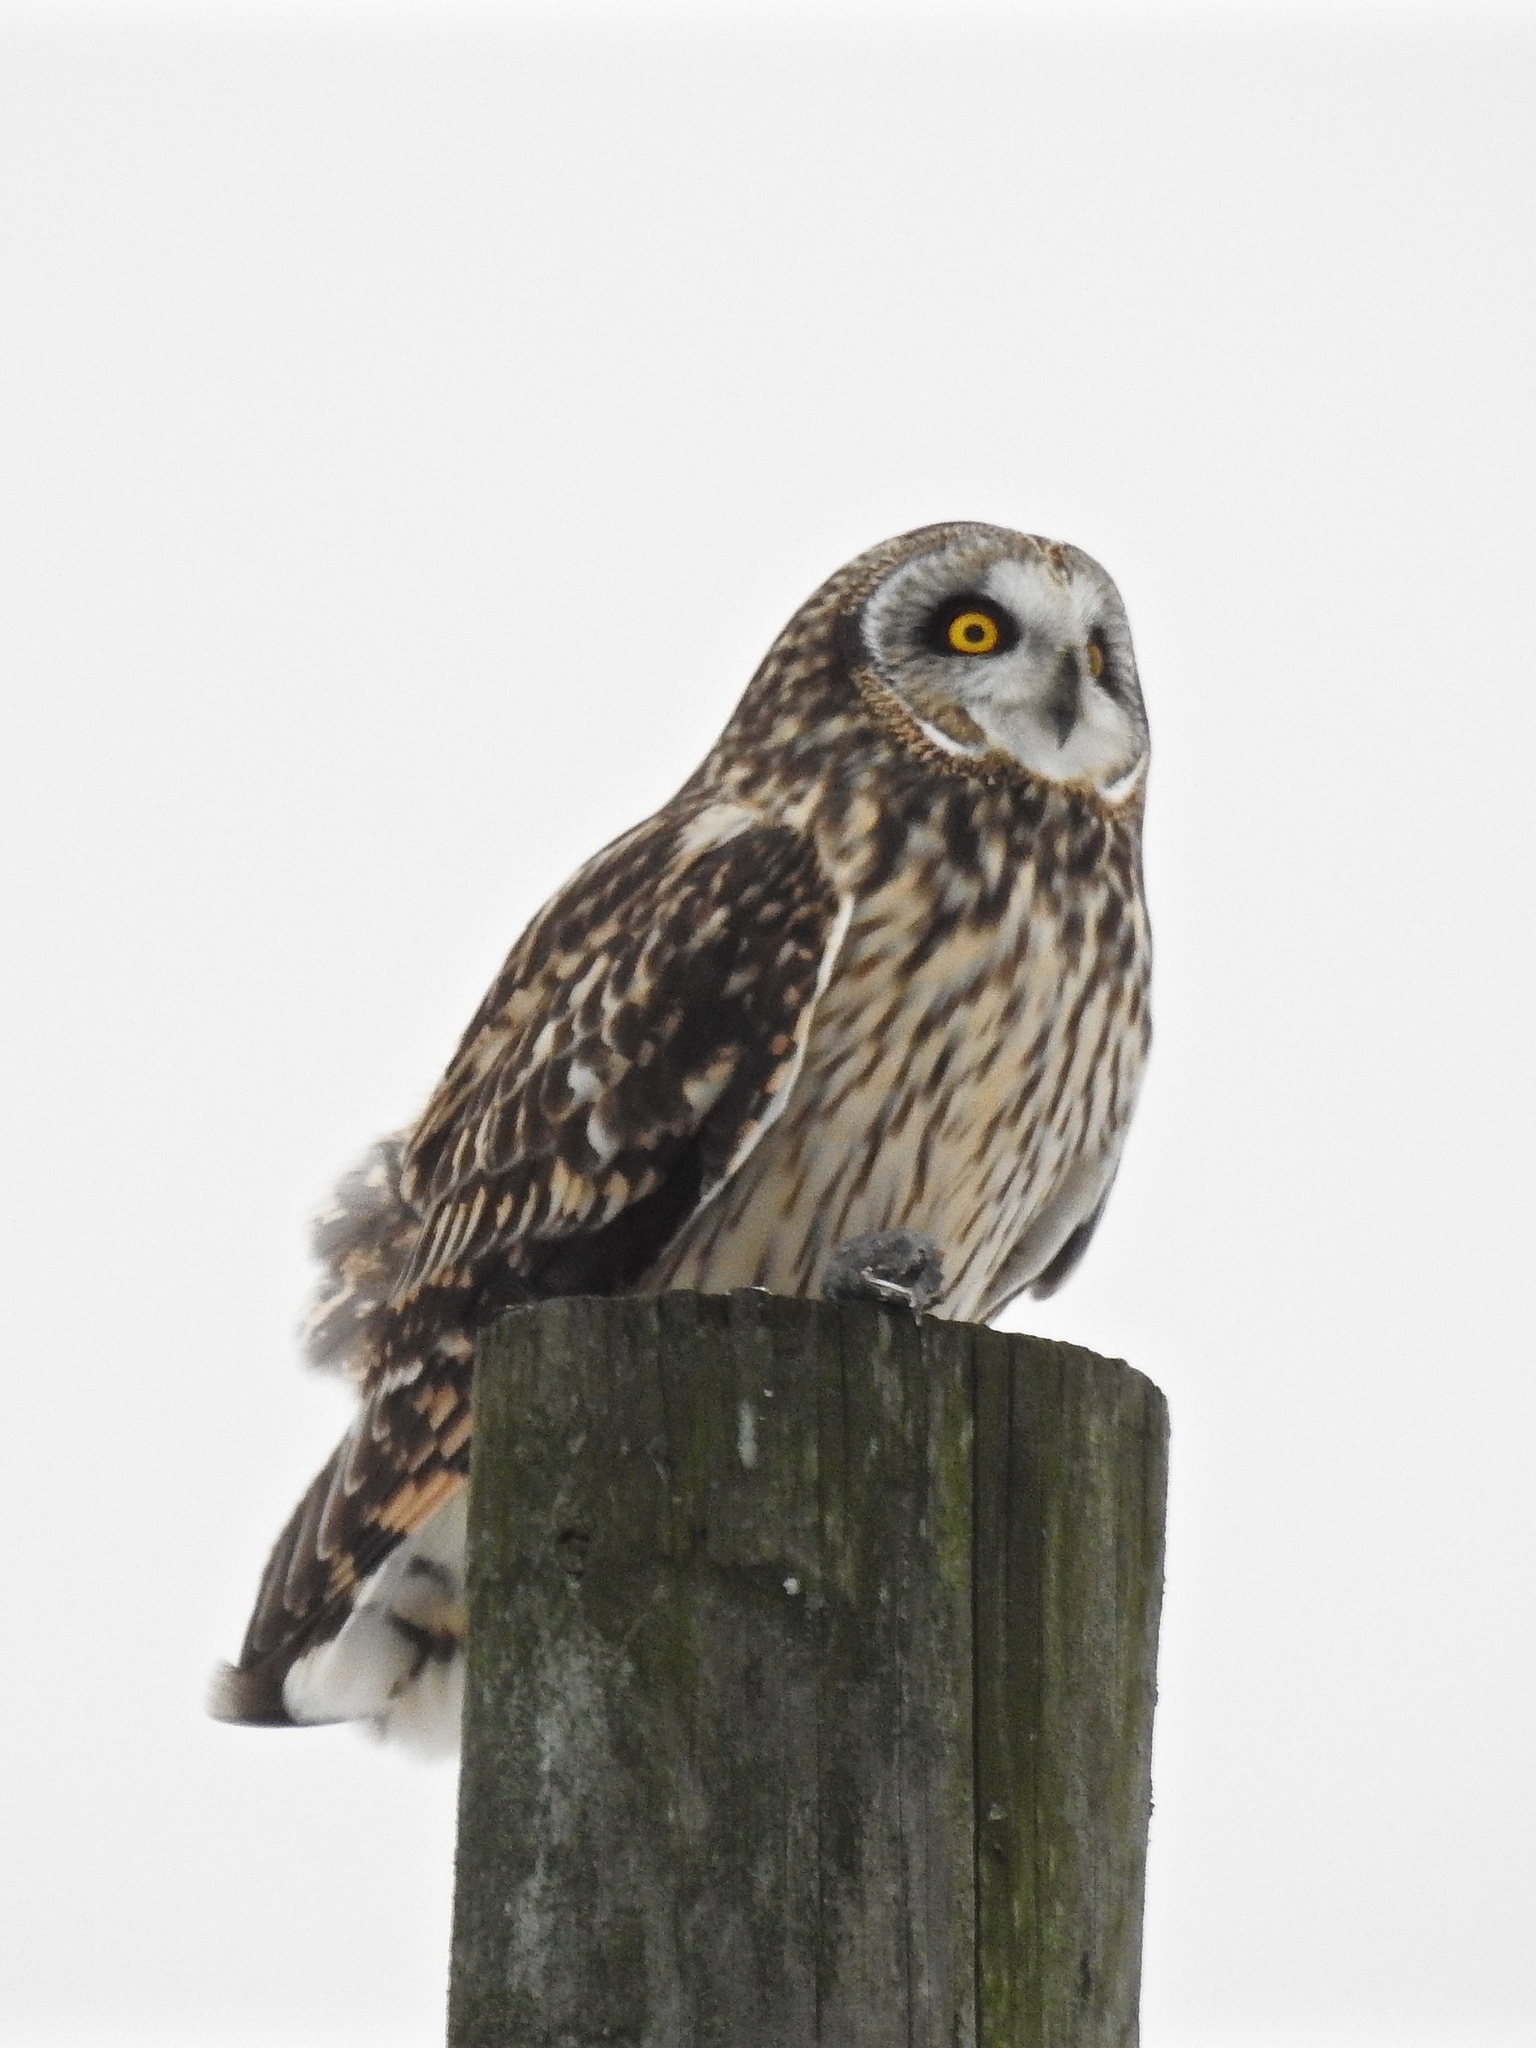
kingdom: Animalia
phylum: Chordata
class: Aves
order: Strigiformes
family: Strigidae
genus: Asio
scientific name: Asio flammeus
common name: Short-eared owl
